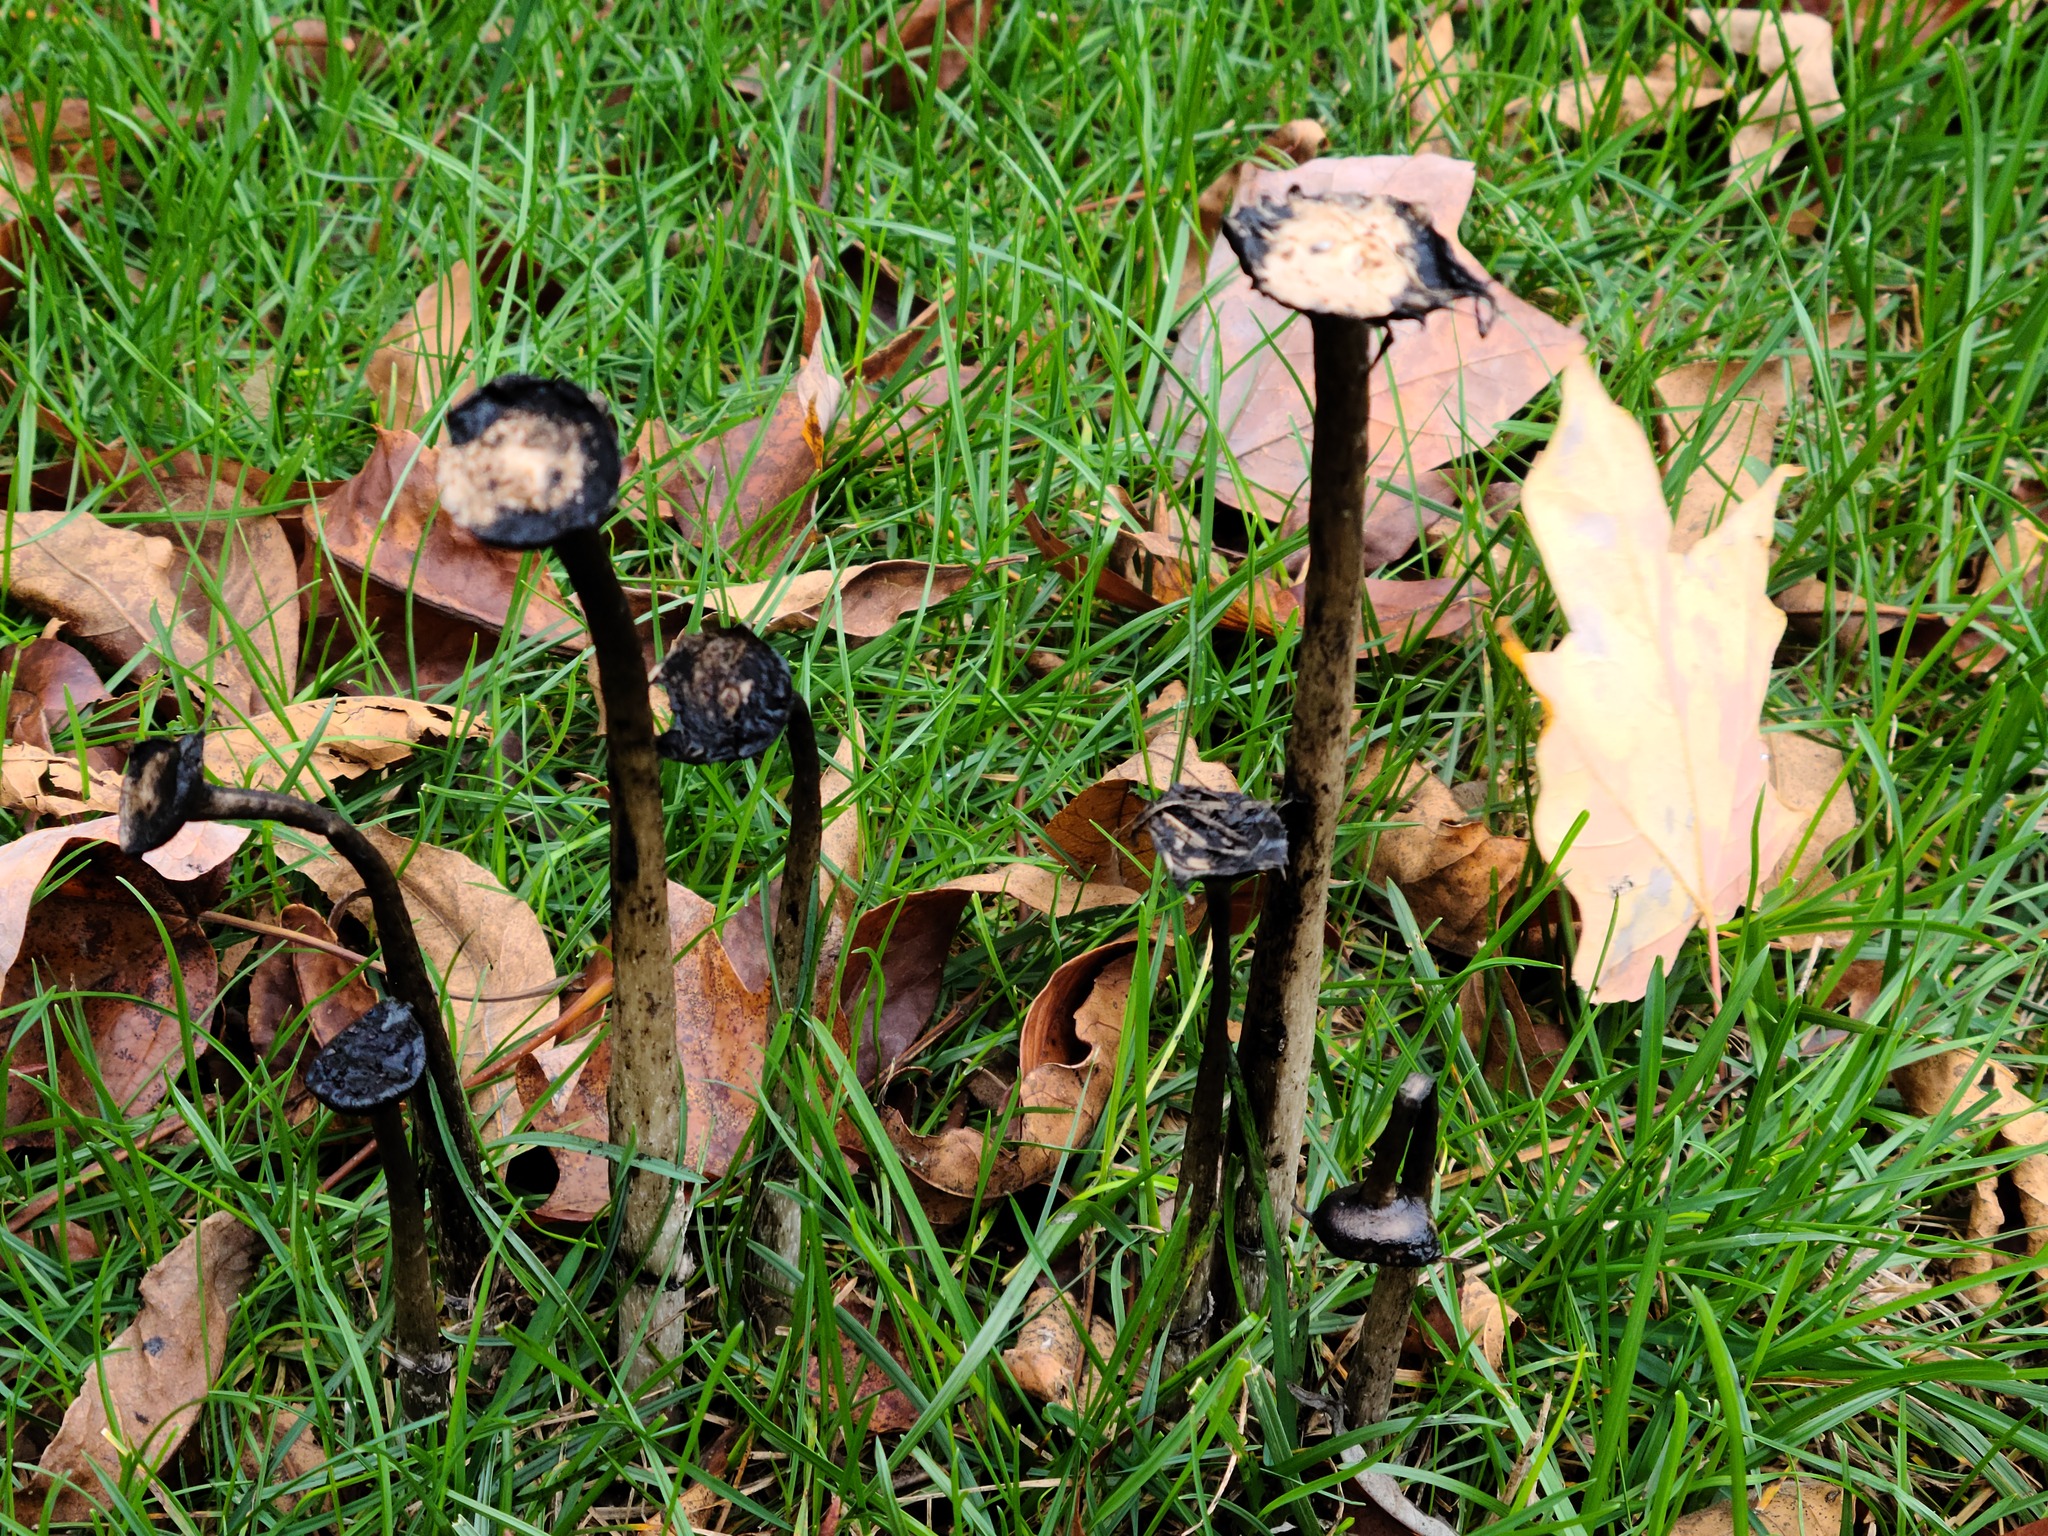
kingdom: Fungi
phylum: Basidiomycota
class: Agaricomycetes
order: Agaricales
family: Agaricaceae
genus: Coprinus
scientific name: Coprinus comatus
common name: Lawyer's wig
